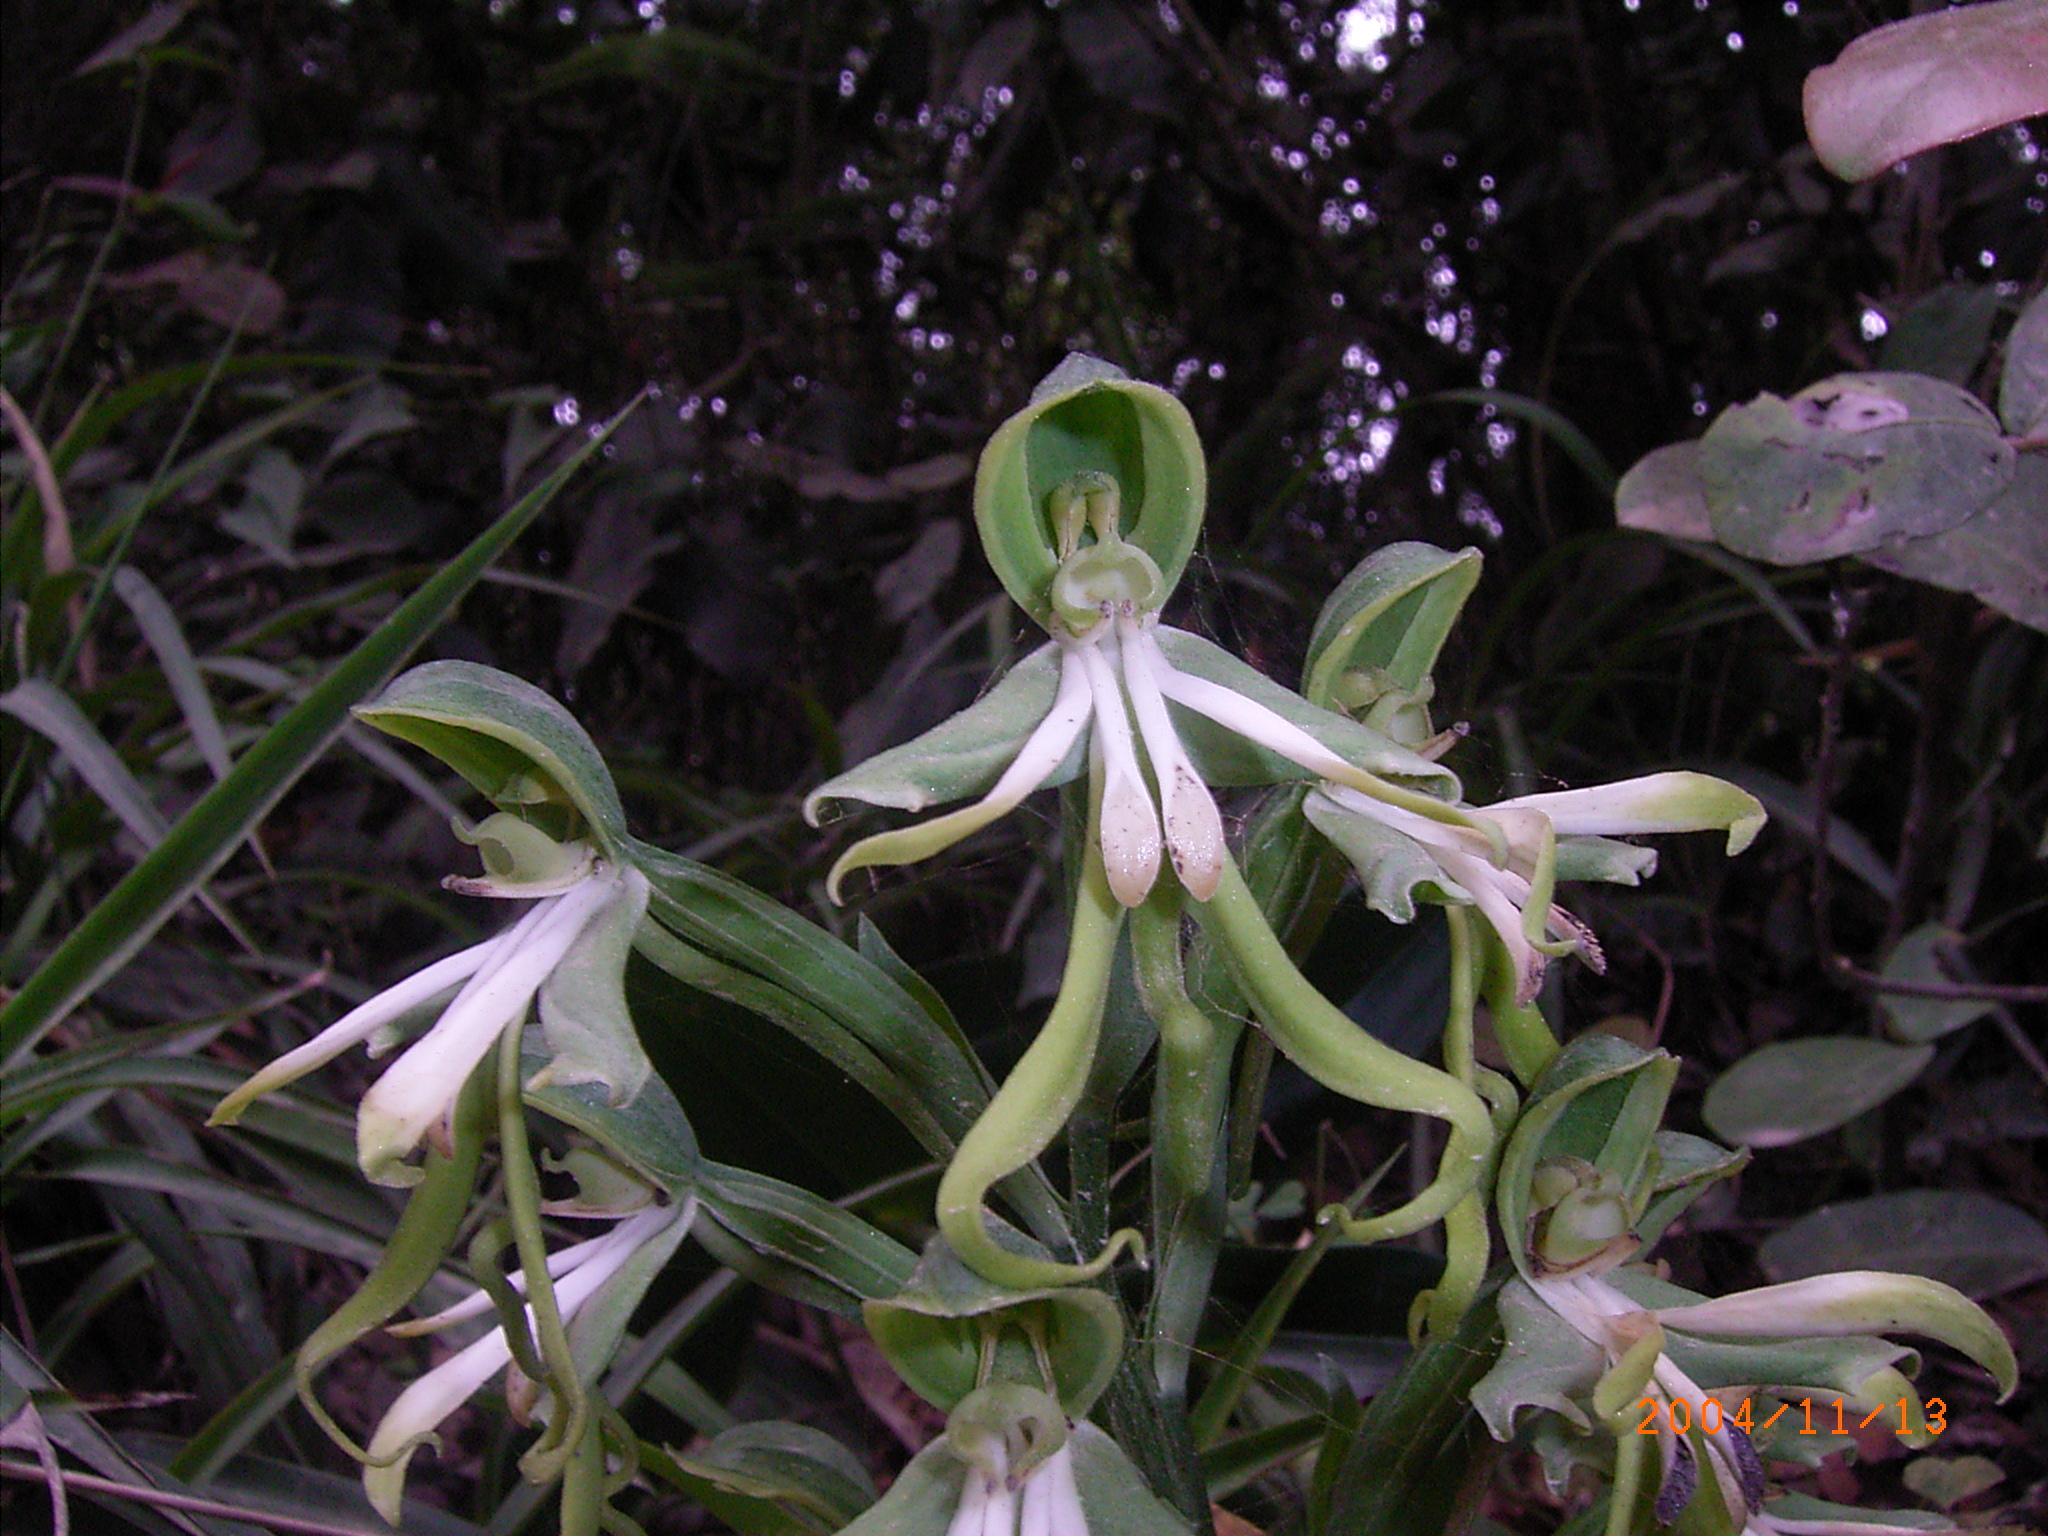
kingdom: Plantae
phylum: Tracheophyta
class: Liliopsida
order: Asparagales
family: Orchidaceae
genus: Bonatea
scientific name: Bonatea speciosa
